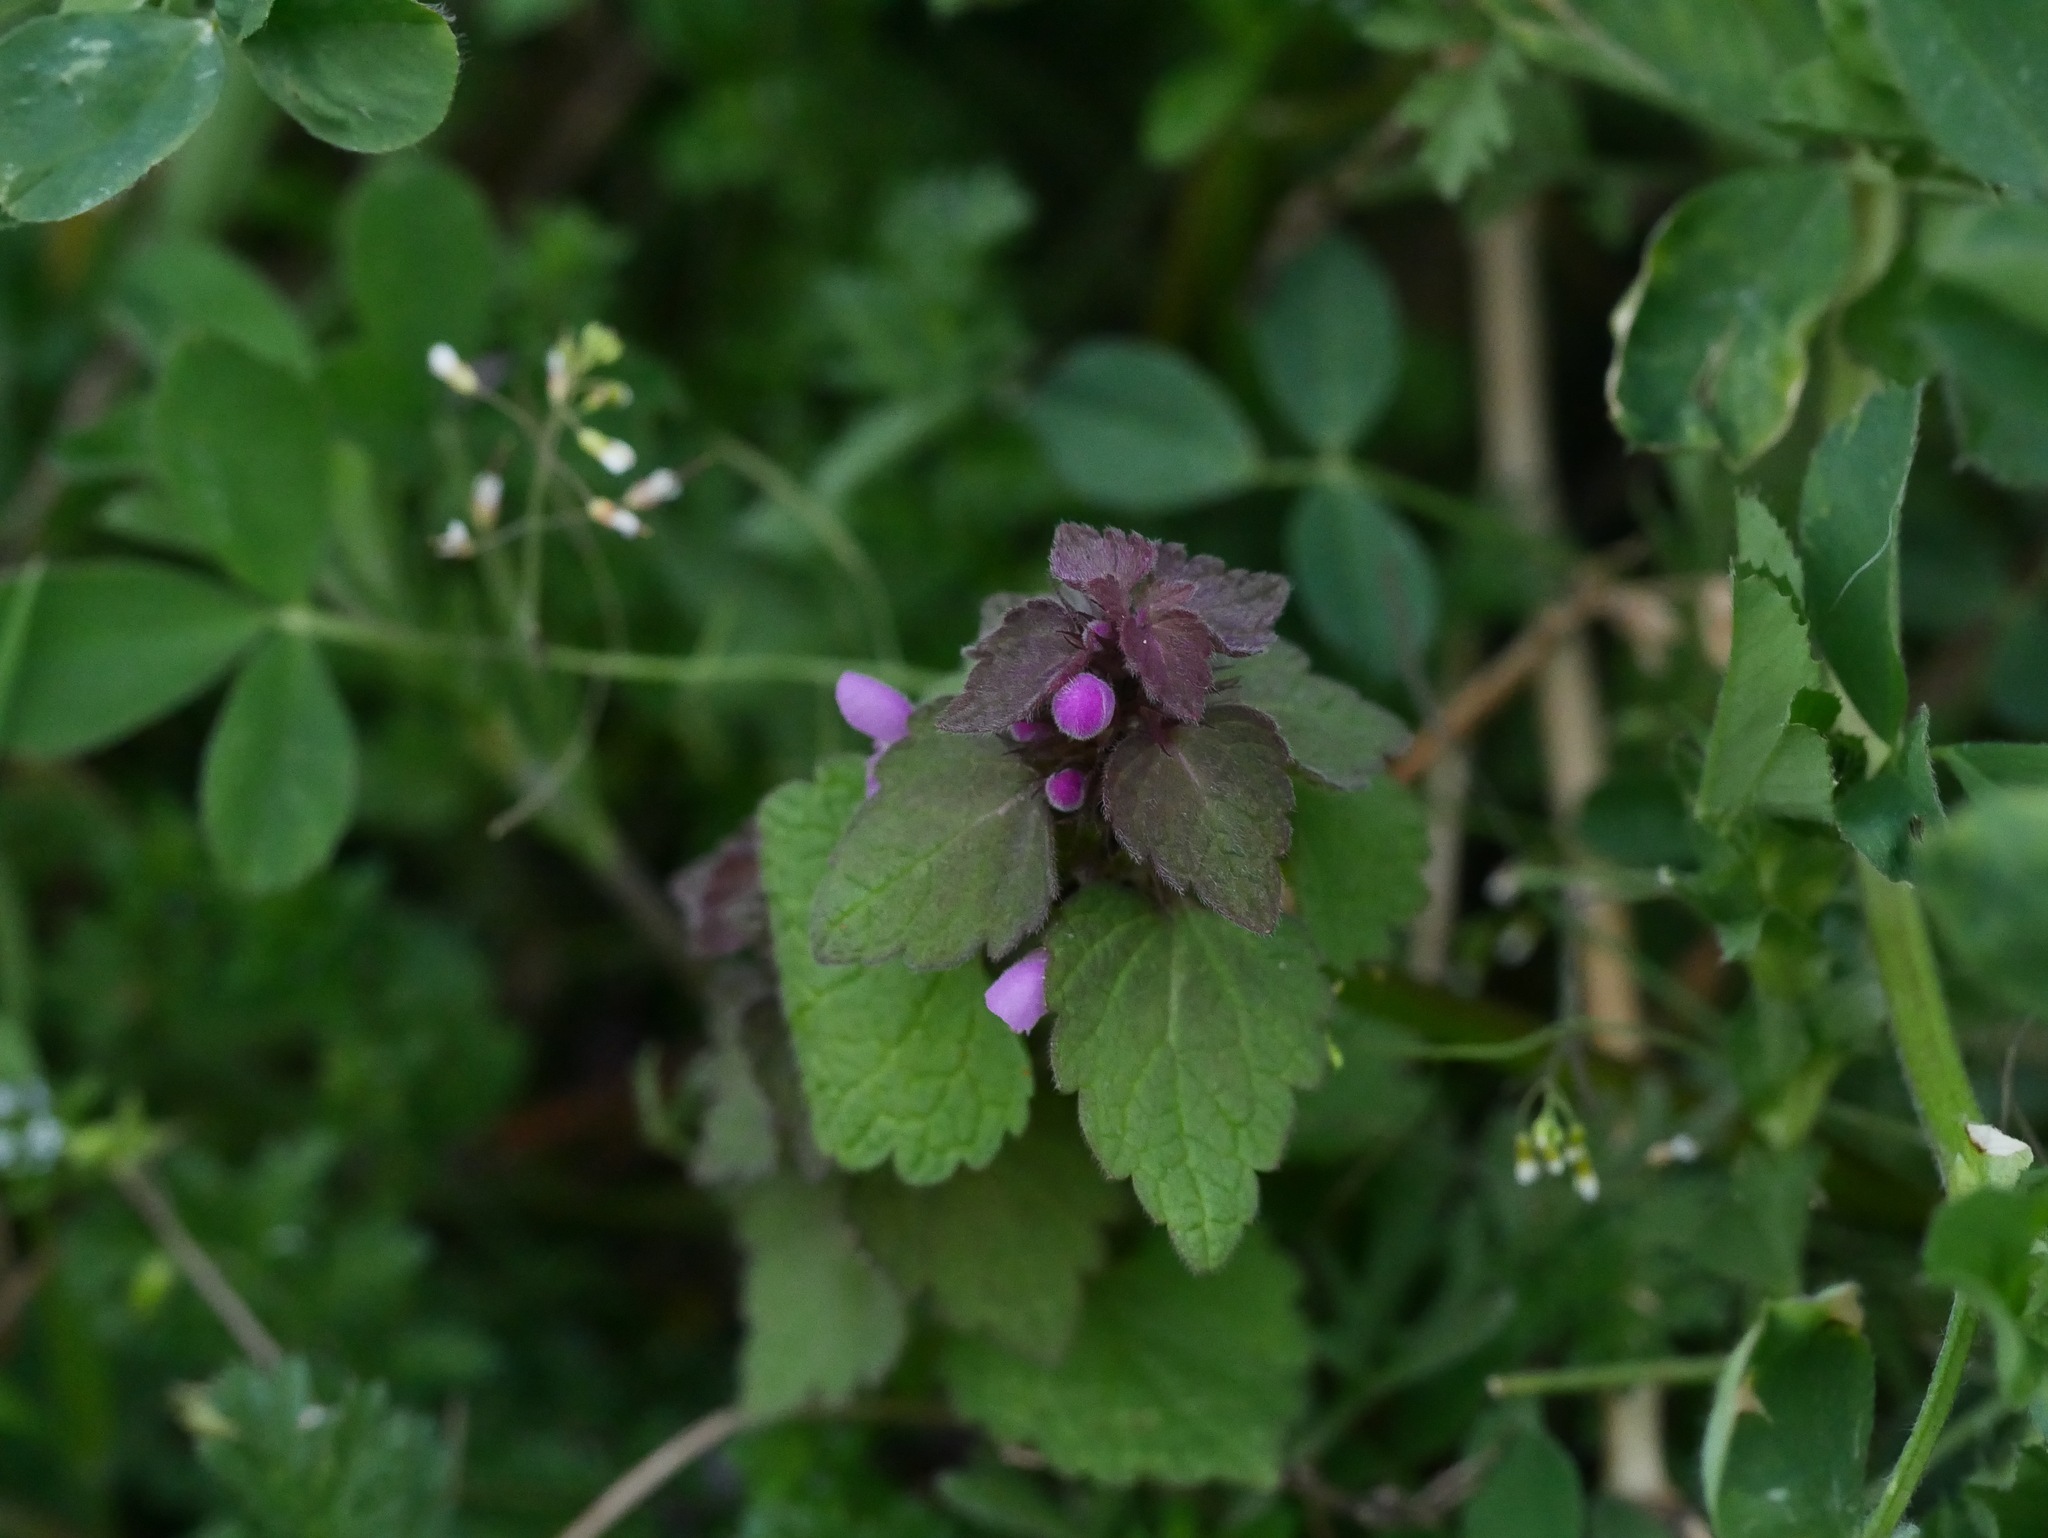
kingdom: Plantae
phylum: Tracheophyta
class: Magnoliopsida
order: Lamiales
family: Lamiaceae
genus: Lamium
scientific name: Lamium purpureum
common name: Red dead-nettle
